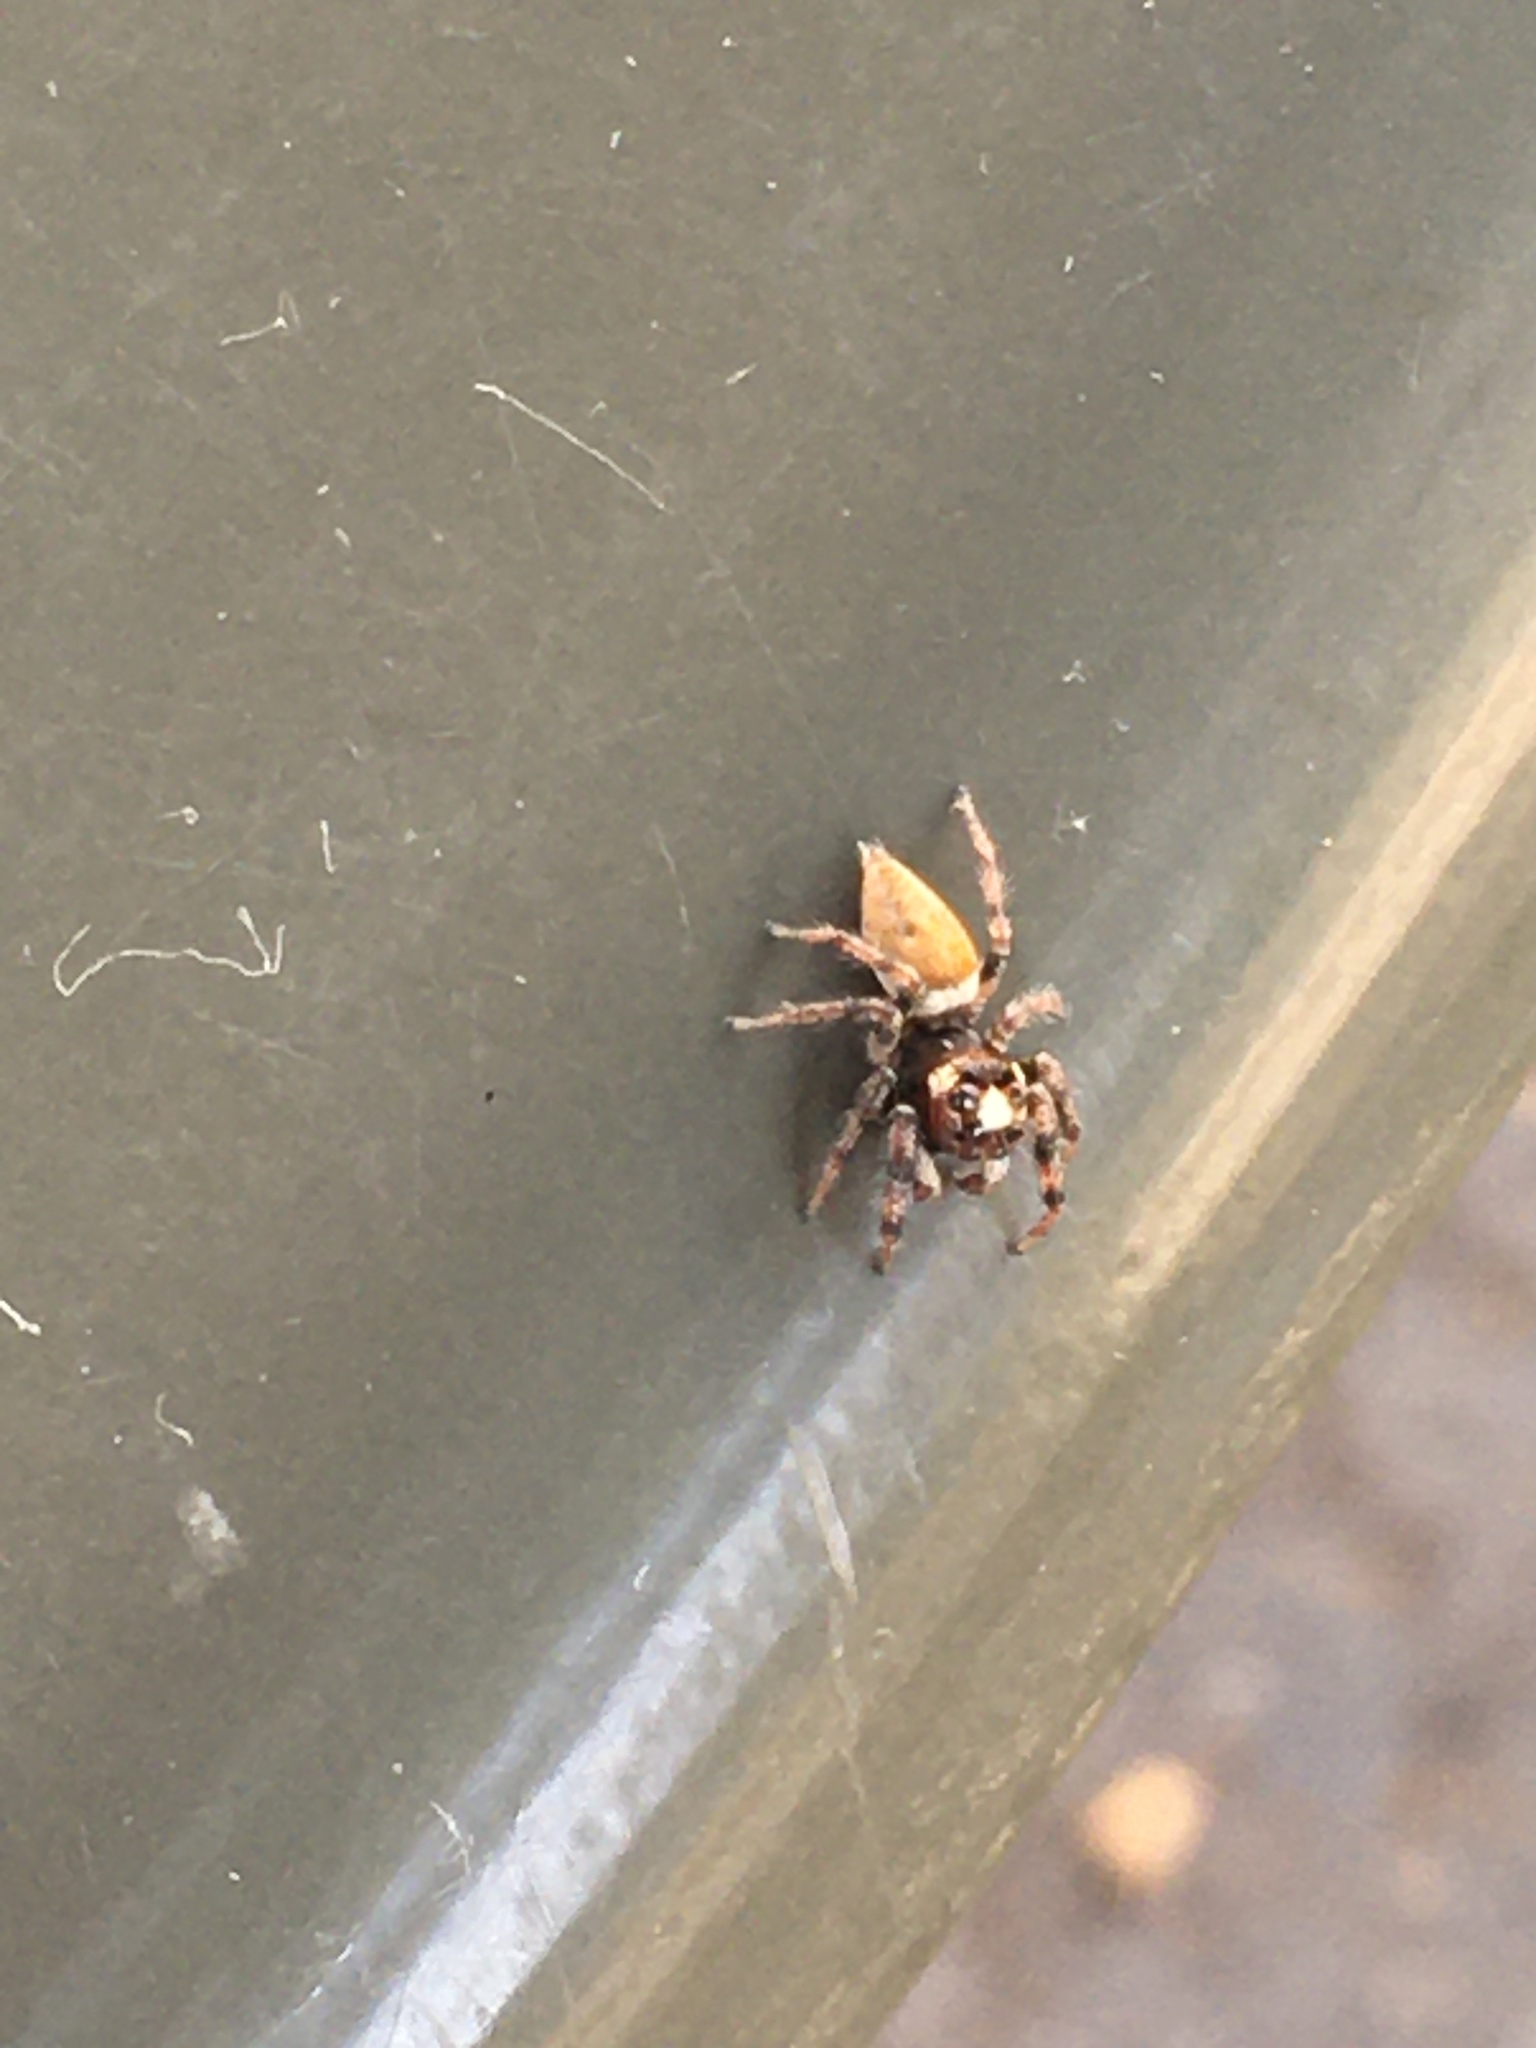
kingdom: Animalia
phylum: Arthropoda
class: Arachnida
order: Araneae
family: Salticidae
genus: Colonus
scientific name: Colonus hesperus
